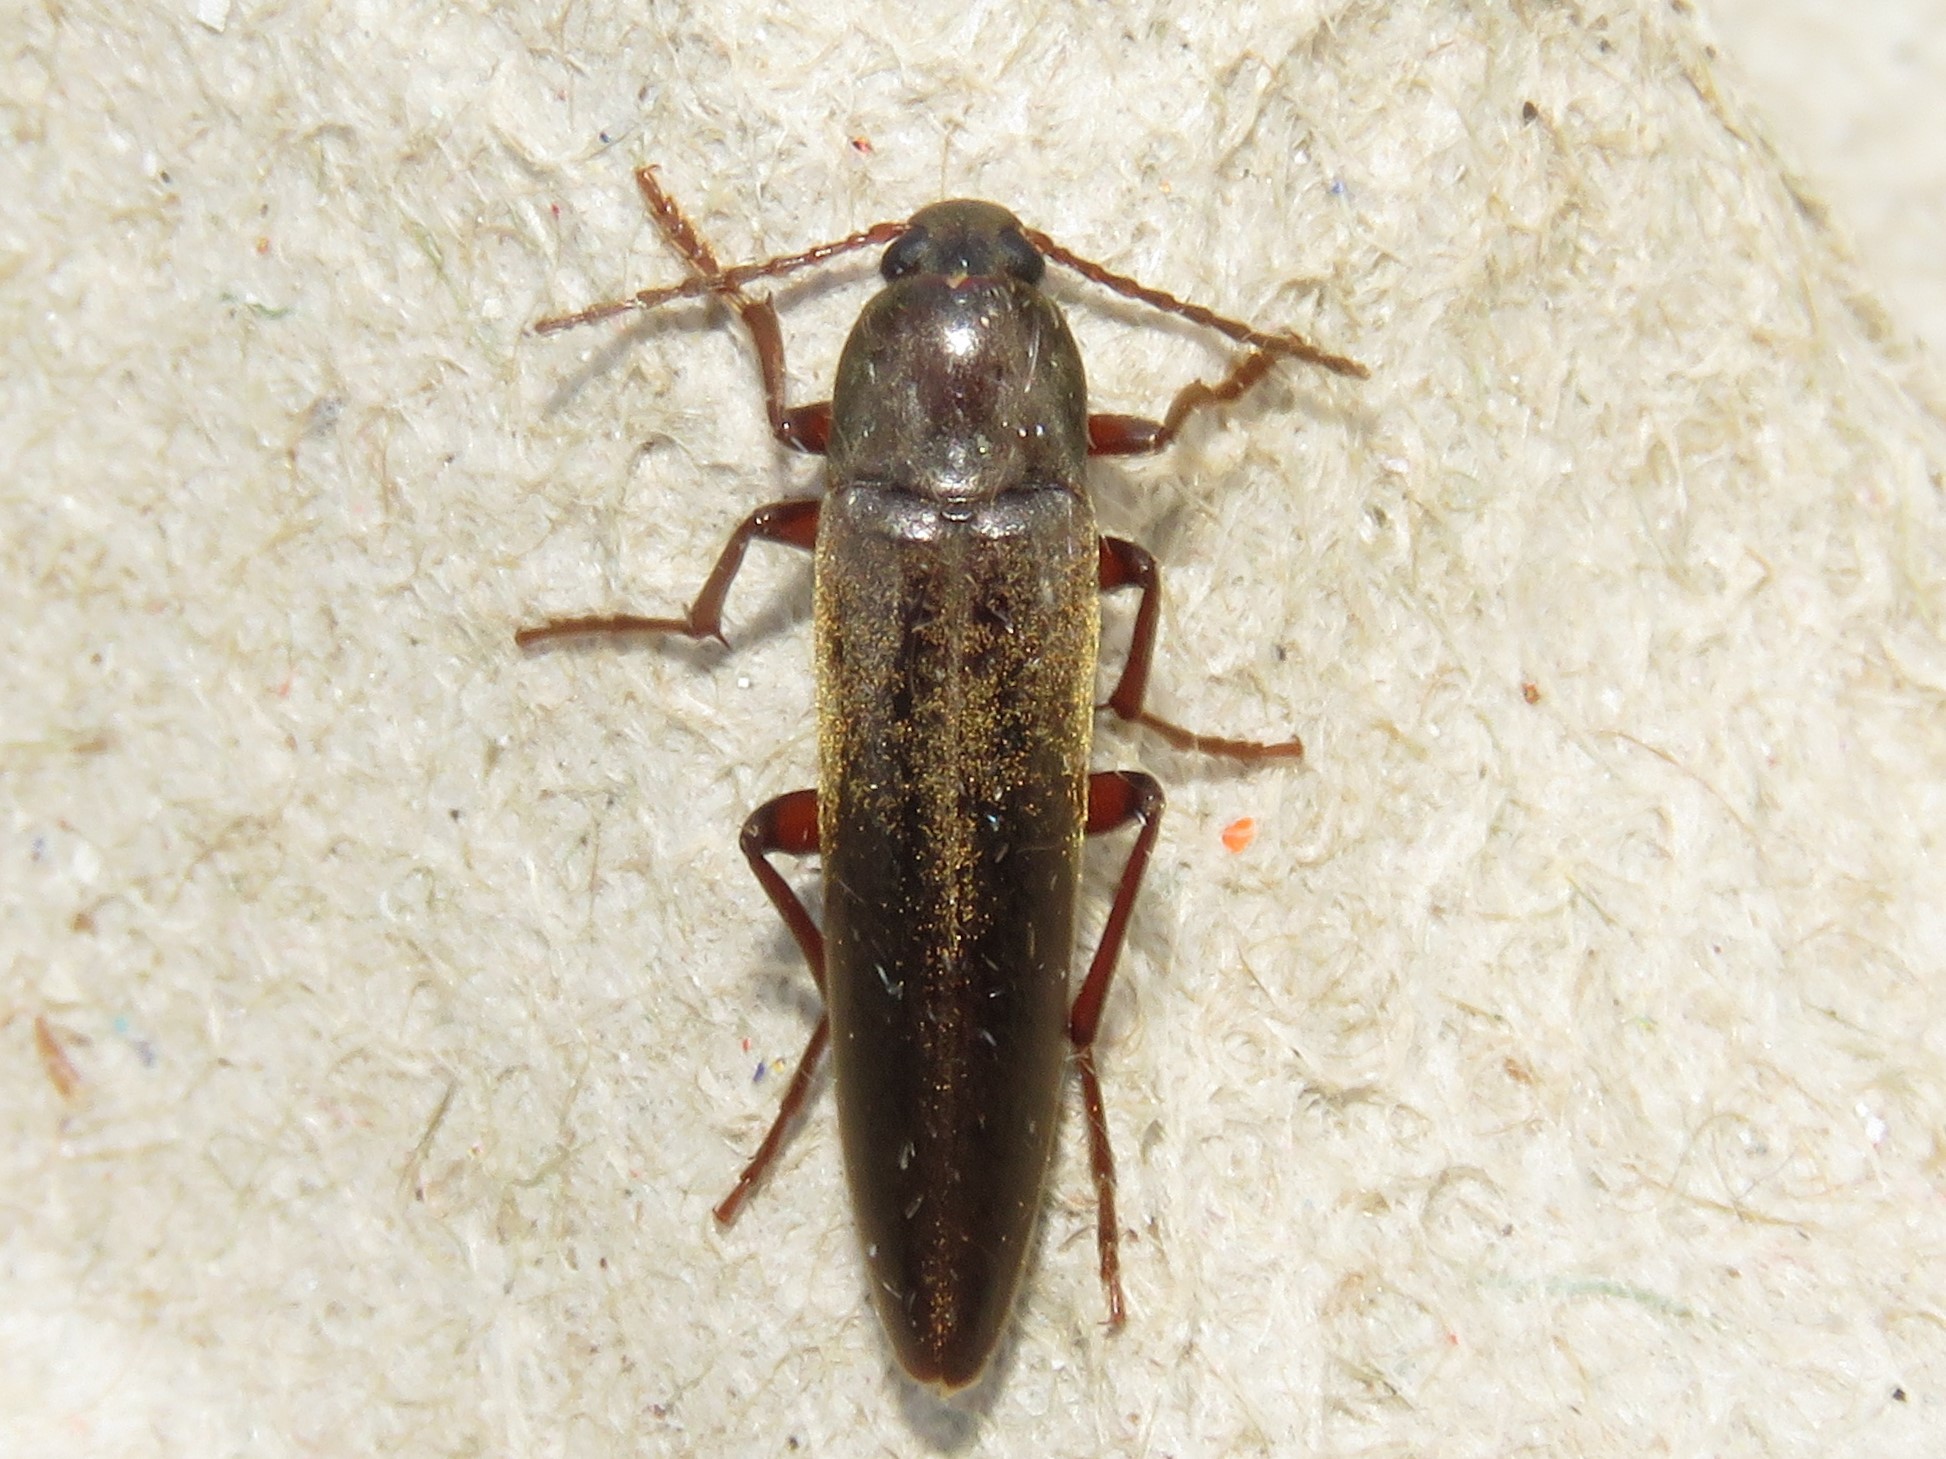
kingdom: Animalia
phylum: Arthropoda
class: Insecta
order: Coleoptera
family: Melandryidae
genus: Enchodes
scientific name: Enchodes sericea
